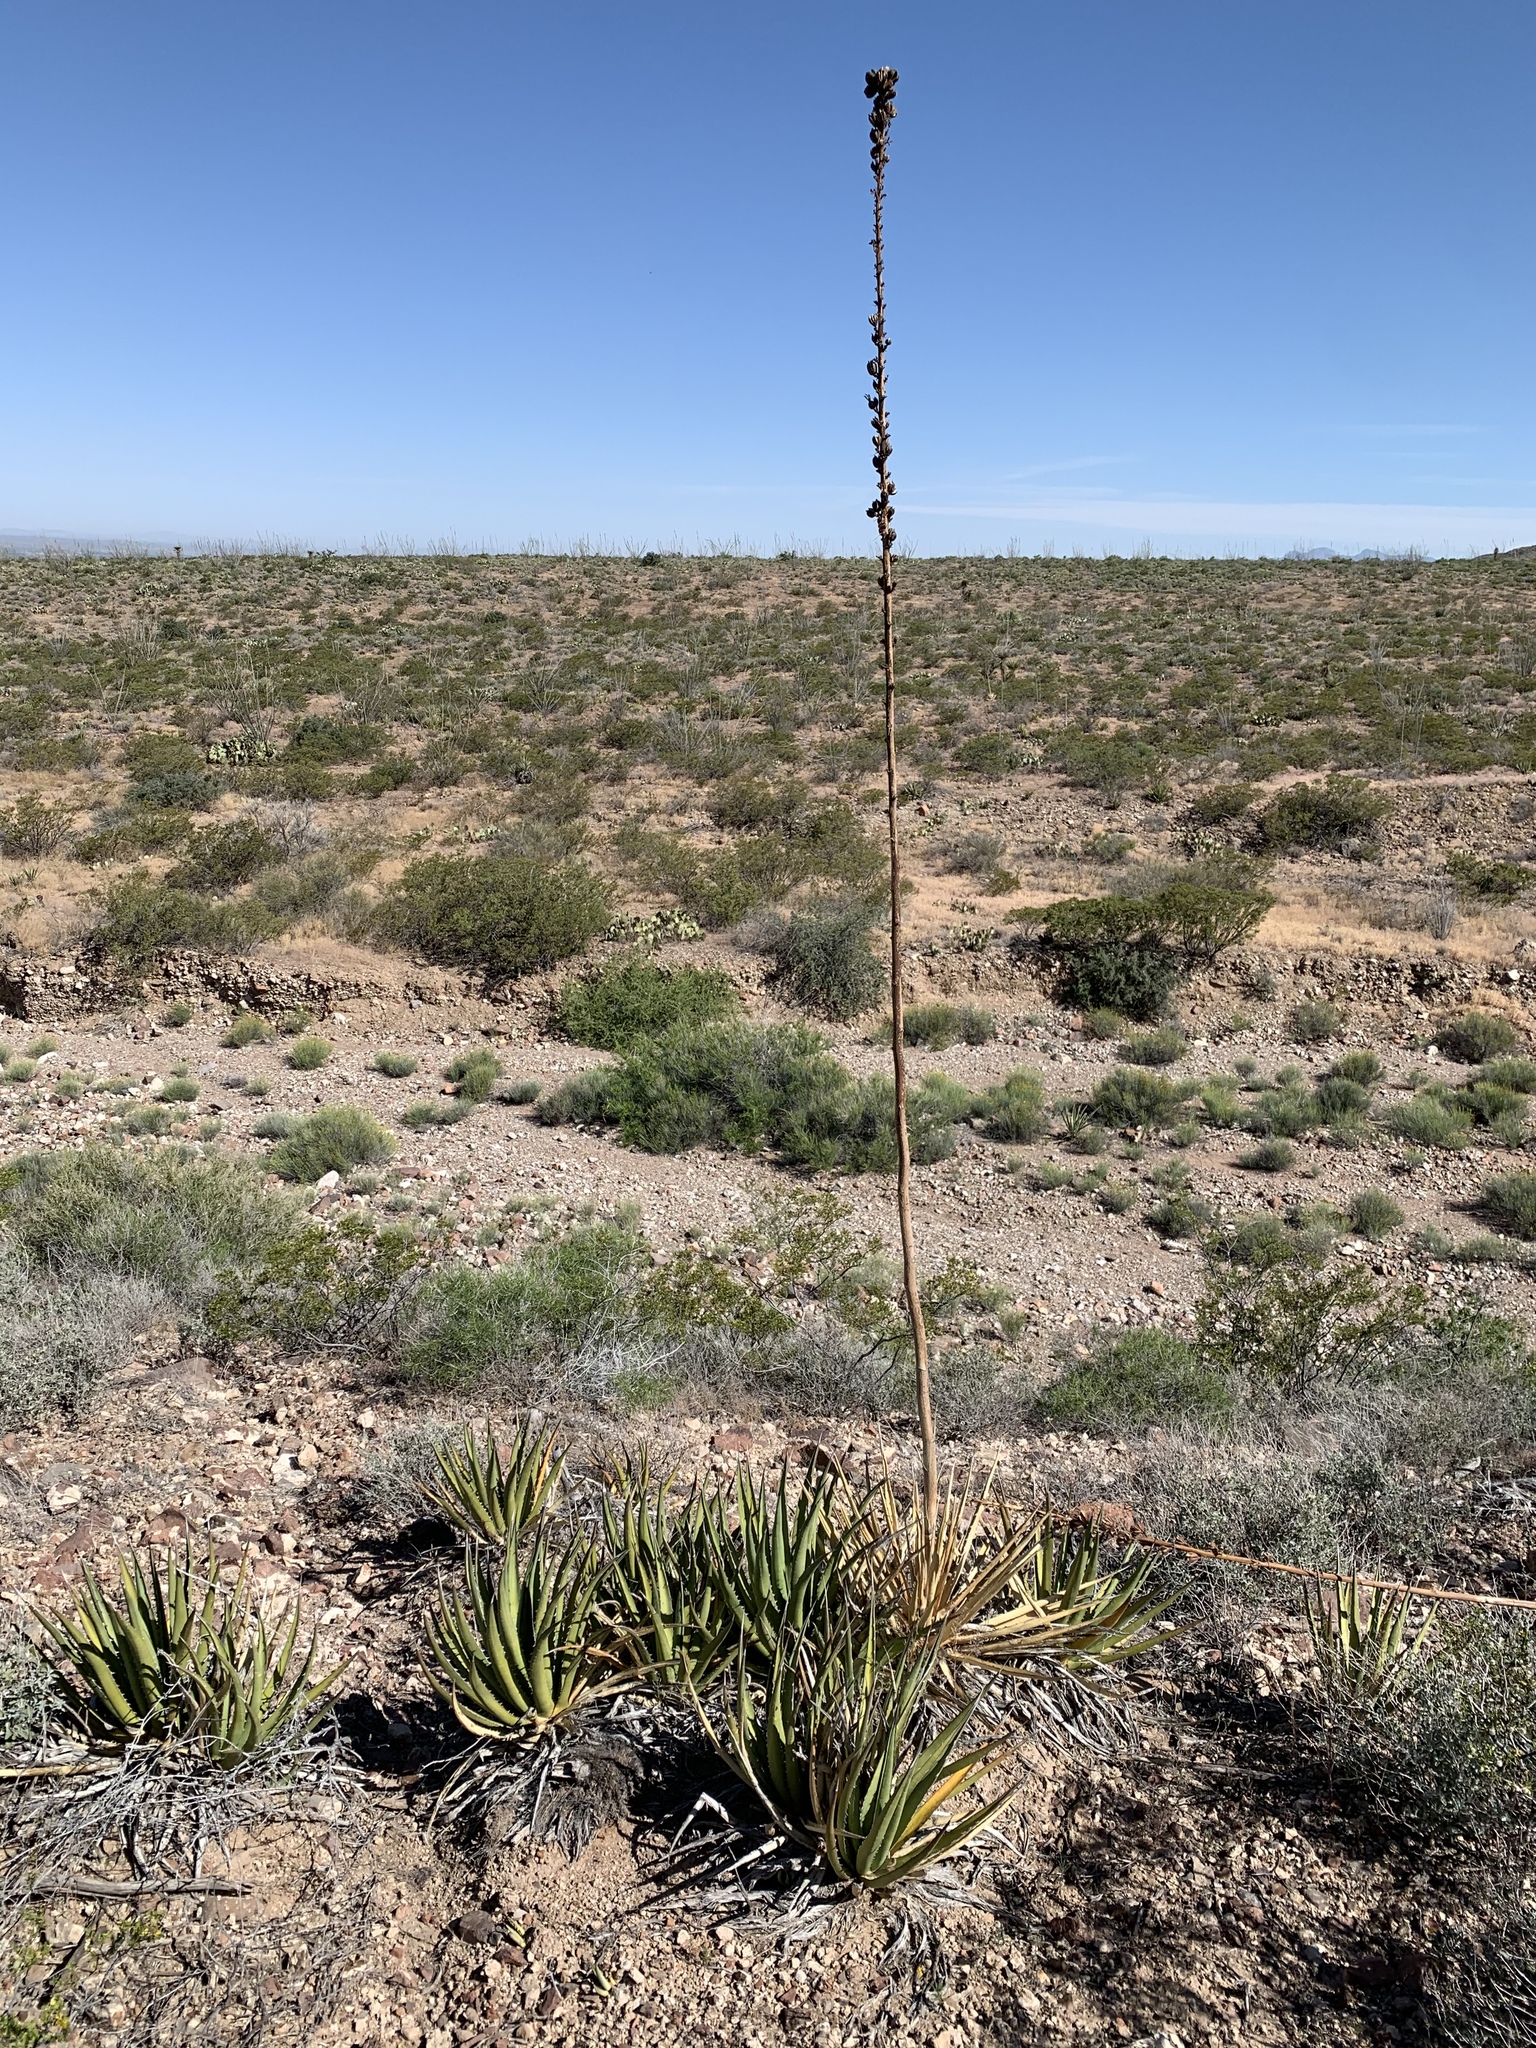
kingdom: Plantae
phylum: Tracheophyta
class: Liliopsida
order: Asparagales
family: Asparagaceae
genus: Agave
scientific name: Agave lechuguilla
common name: Lecheguilla agave
